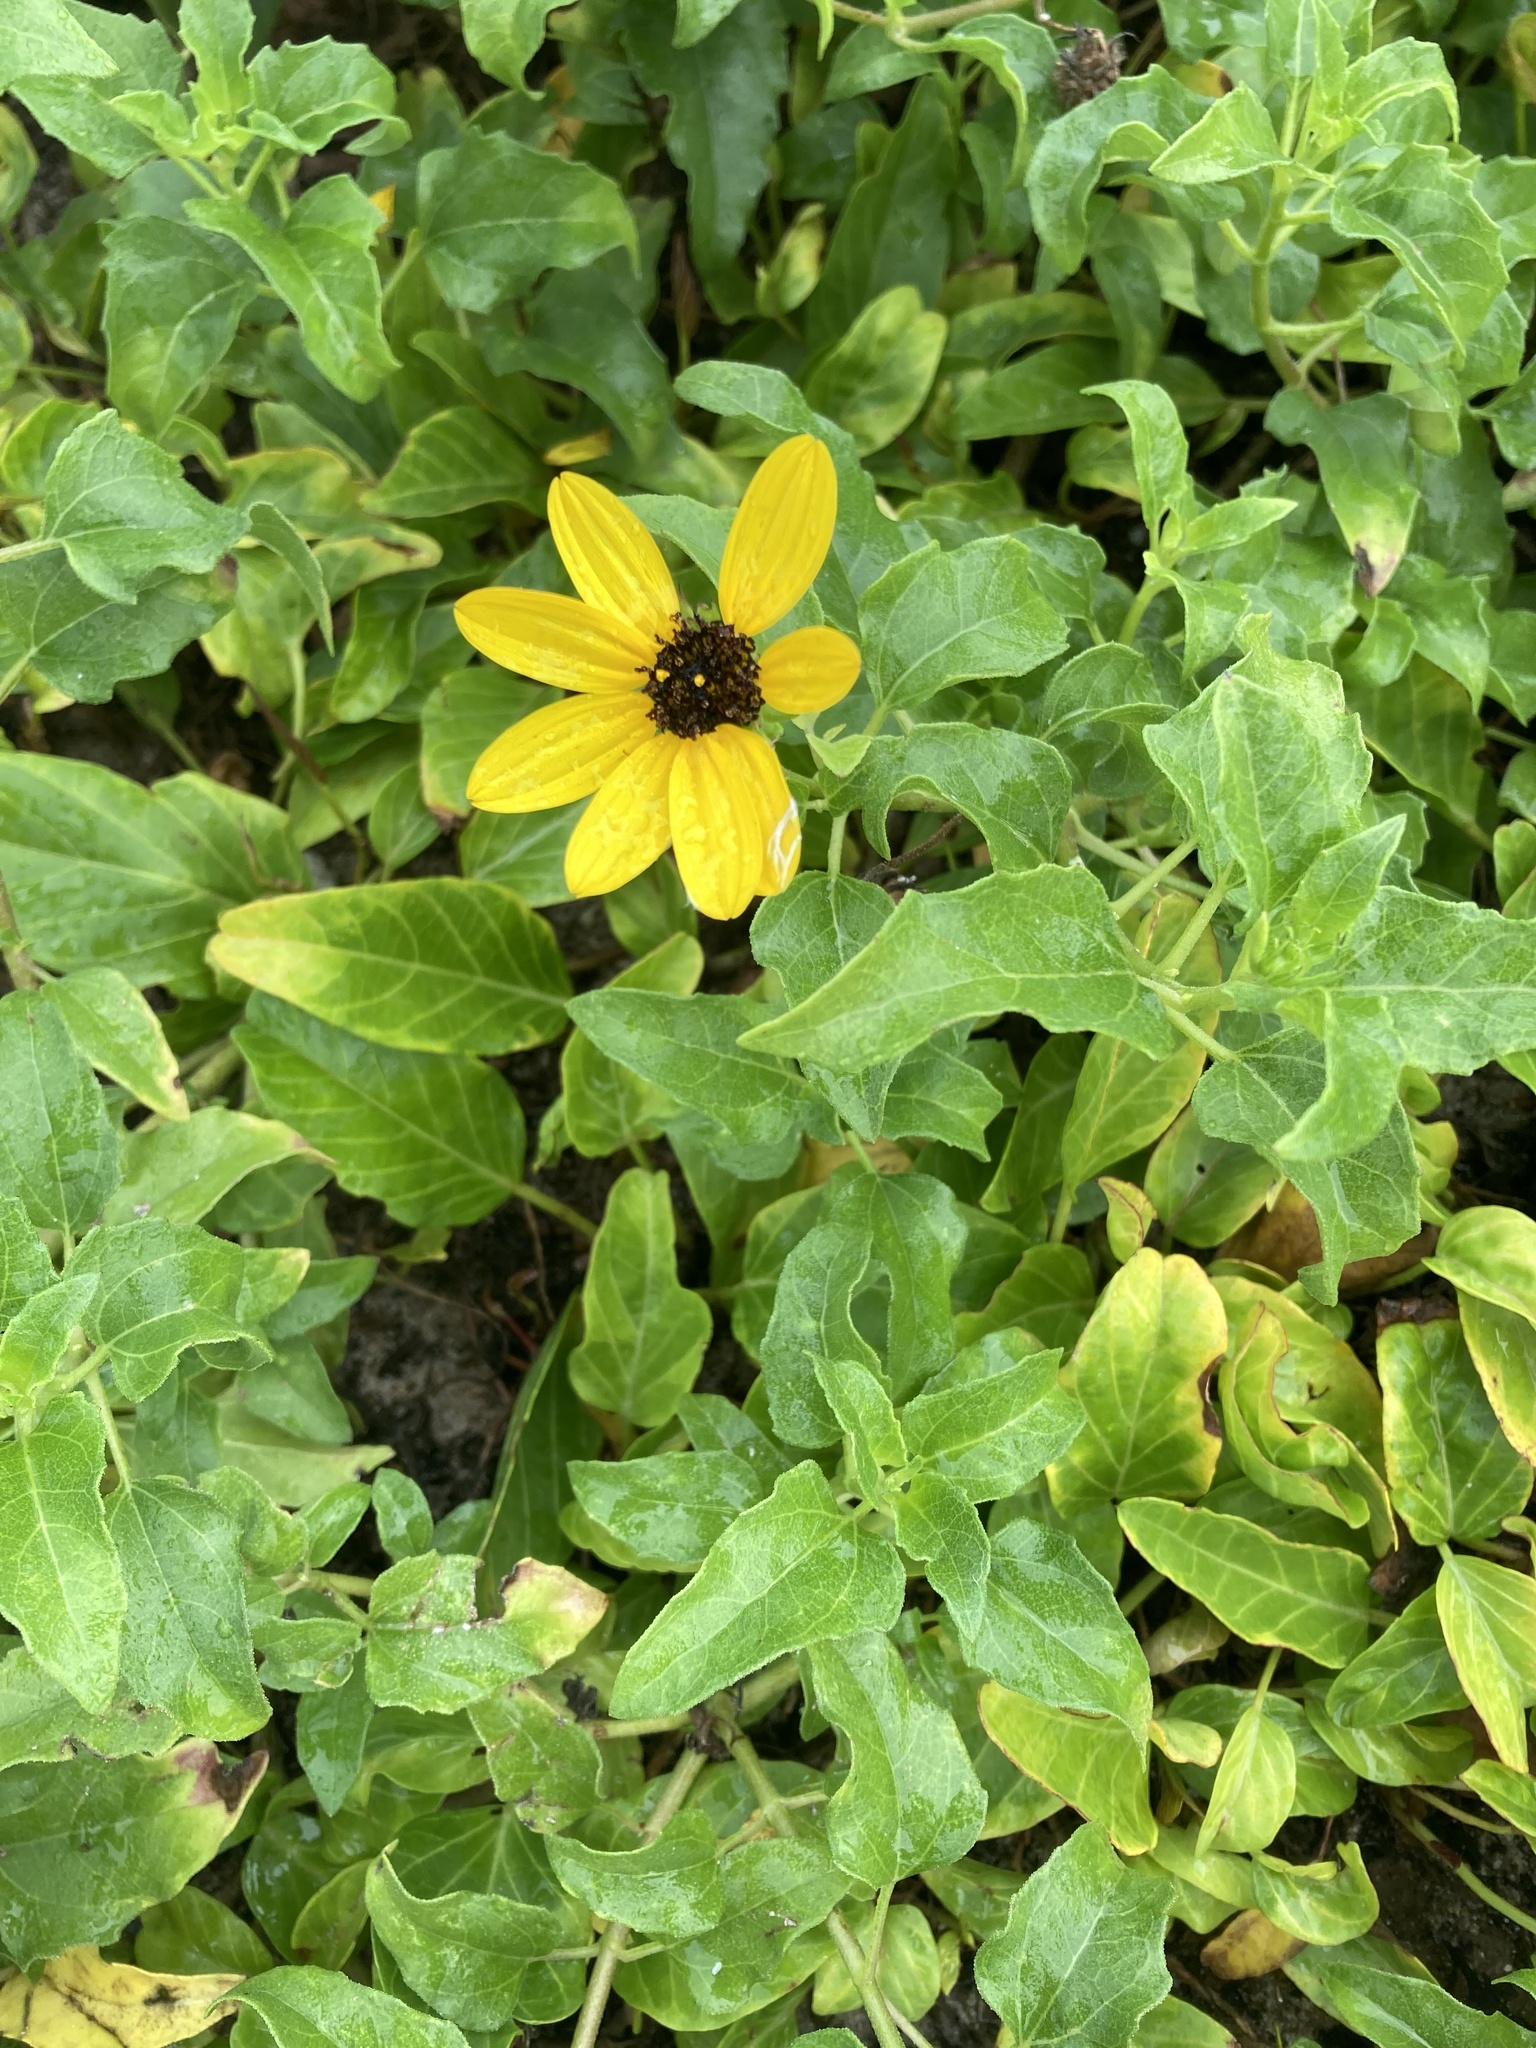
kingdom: Plantae
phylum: Tracheophyta
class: Magnoliopsida
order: Asterales
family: Asteraceae
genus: Helianthus
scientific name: Helianthus debilis
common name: Weak sunflower
